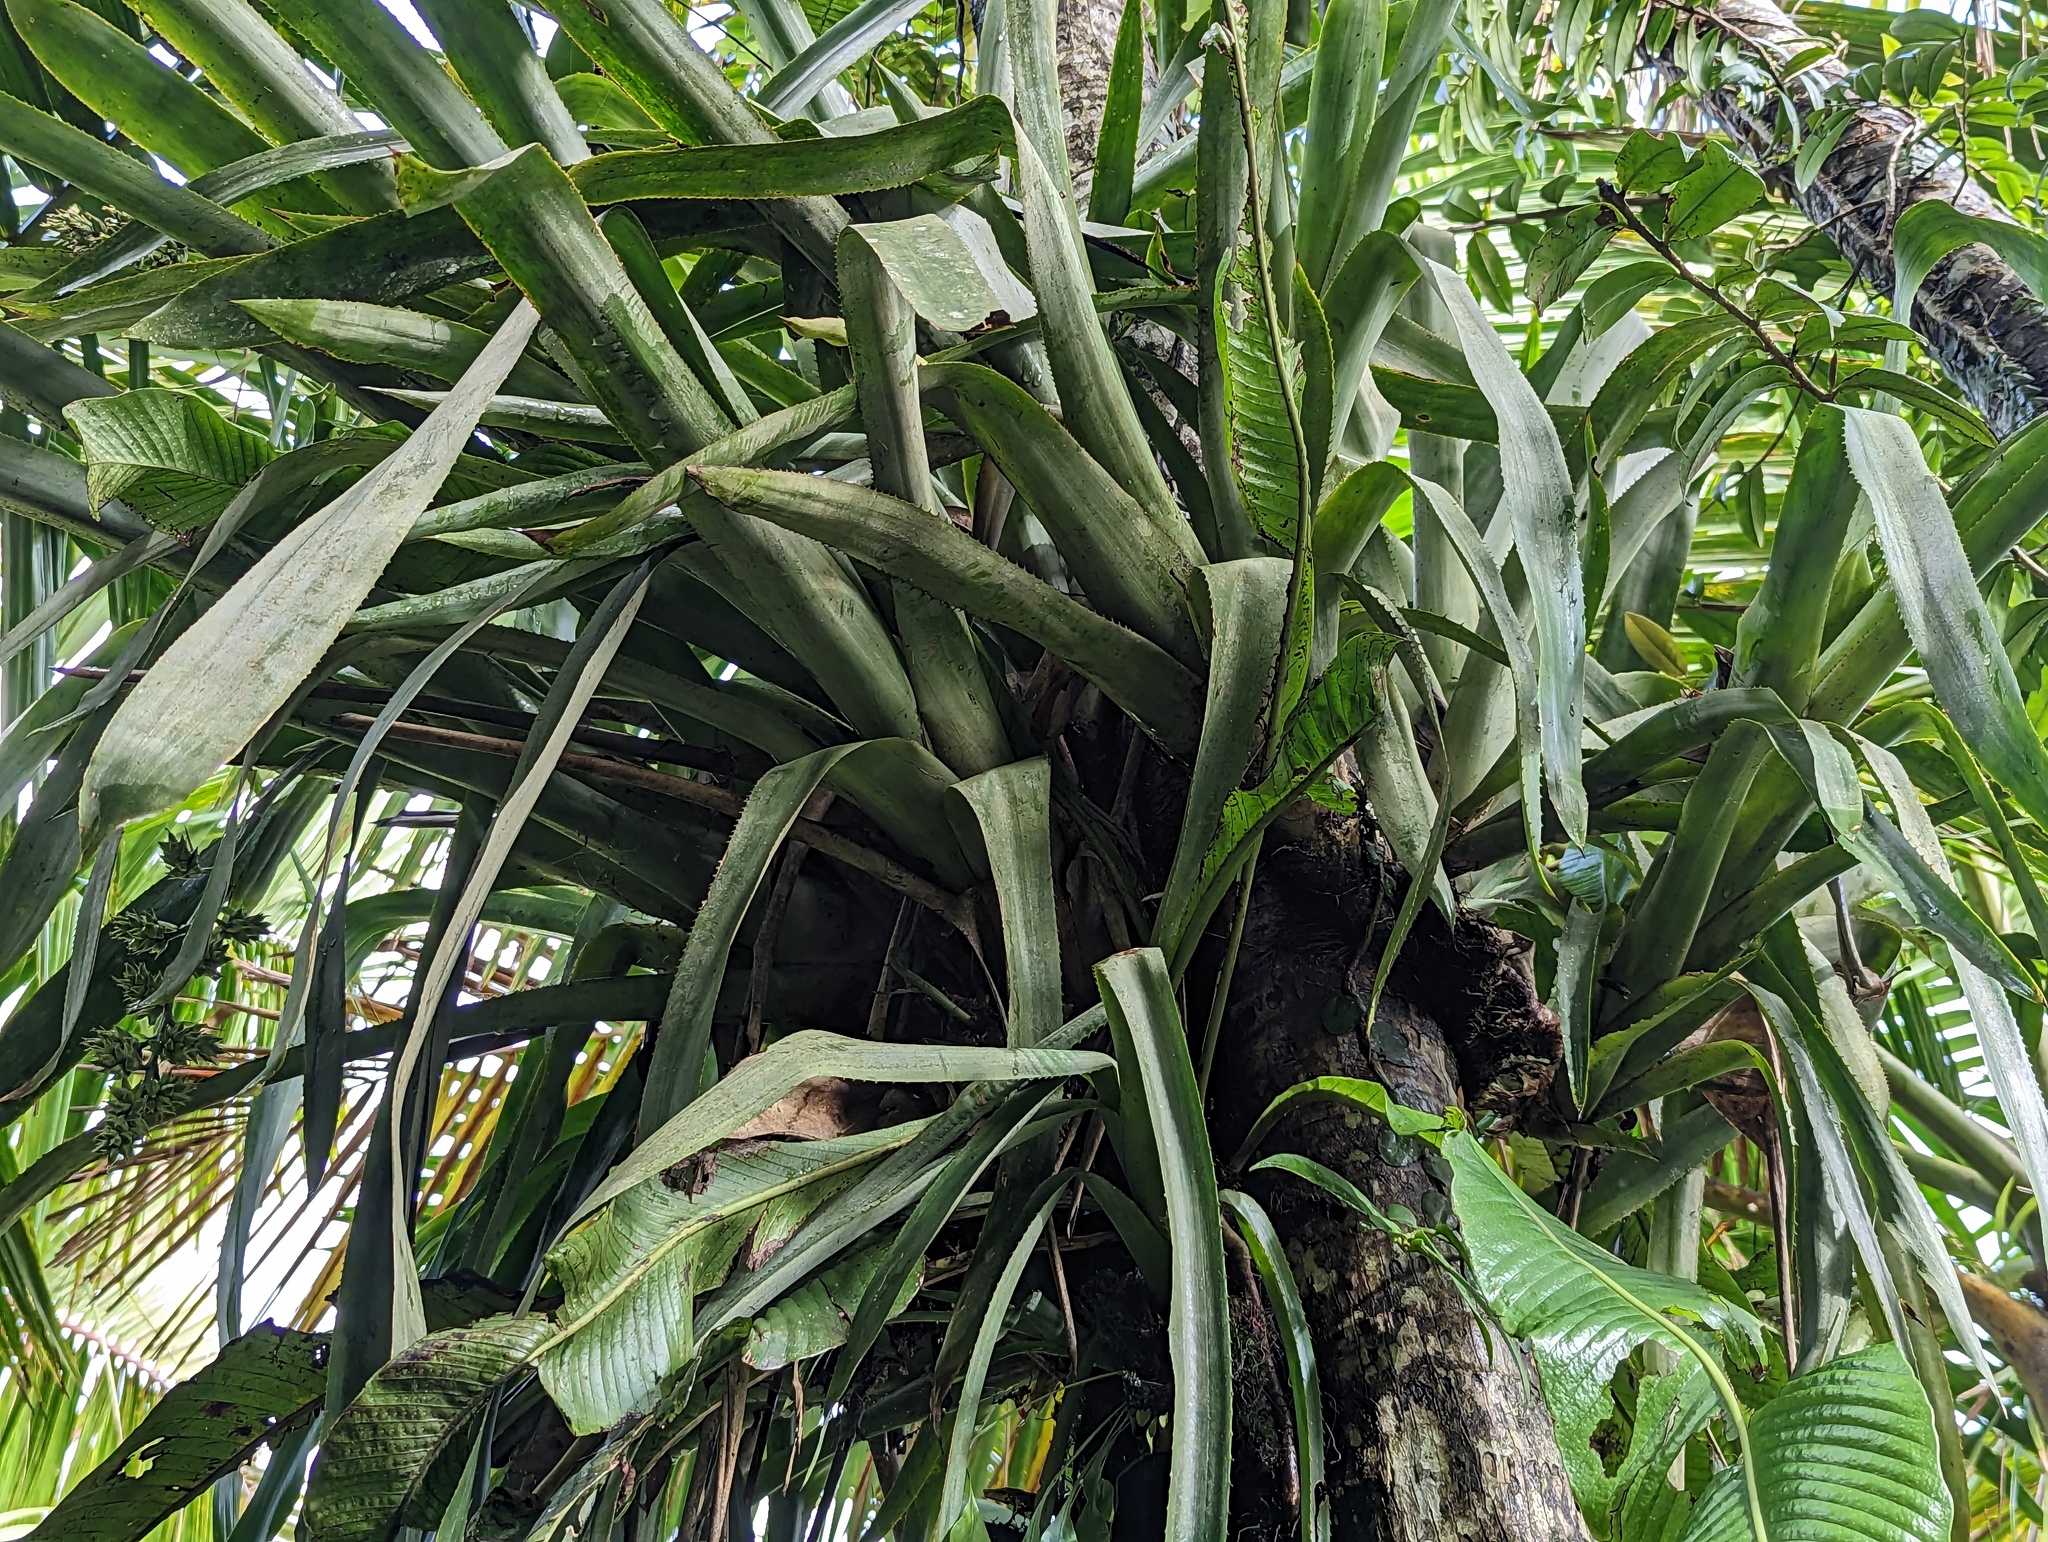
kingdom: Plantae
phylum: Tracheophyta
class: Liliopsida
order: Poales
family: Bromeliaceae
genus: Wittmackia
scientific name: Wittmackia portoricensis
